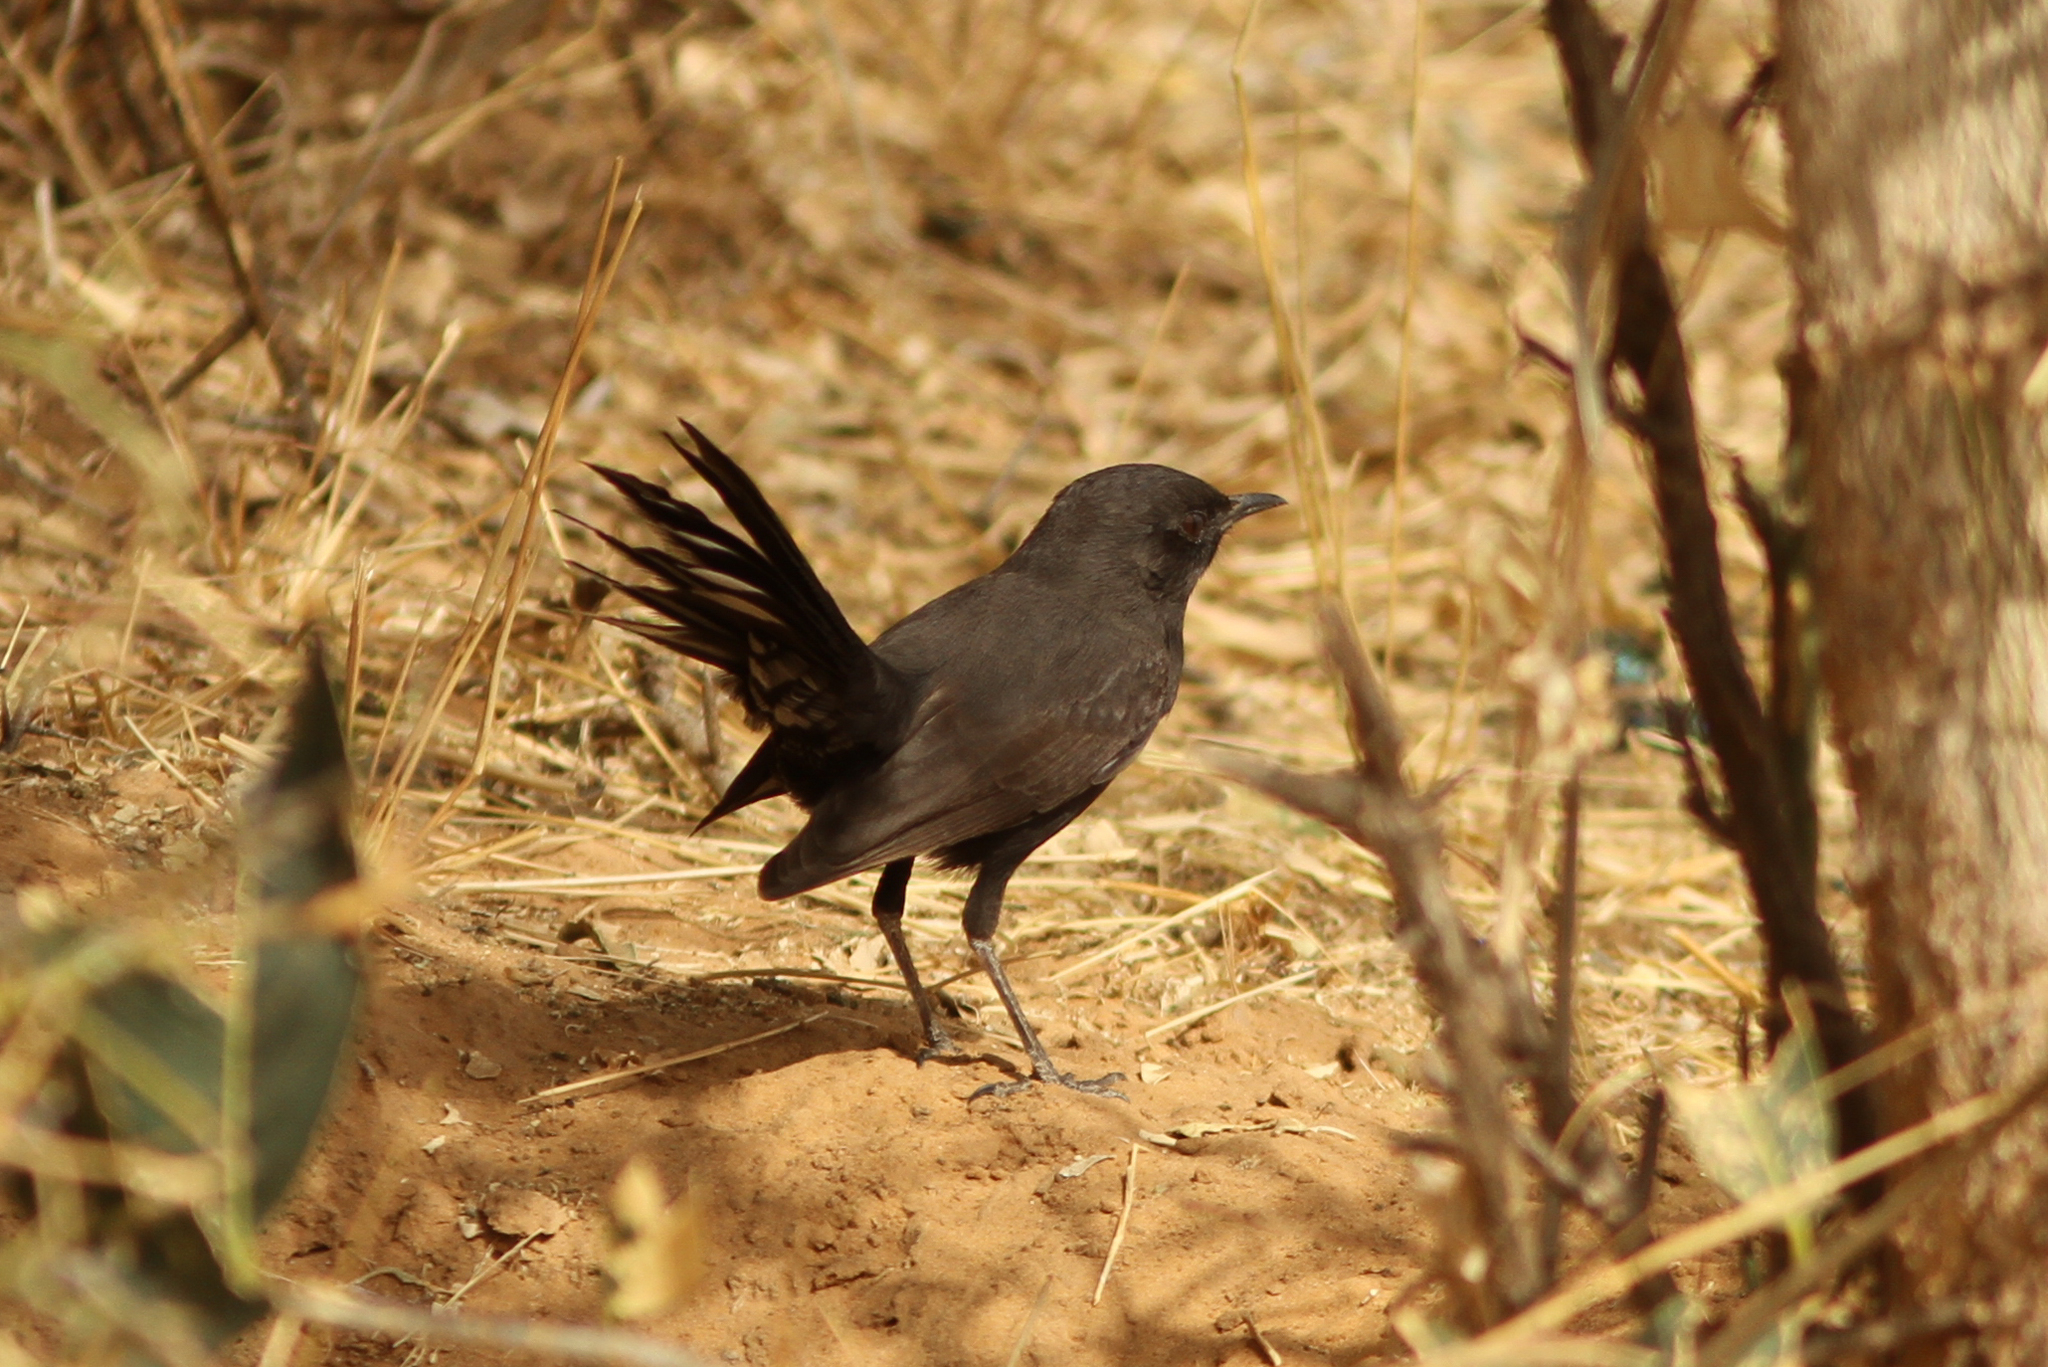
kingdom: Animalia
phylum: Chordata
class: Aves
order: Passeriformes
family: Muscicapidae
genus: Cercotrichas
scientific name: Cercotrichas podobe
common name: Black scrub robin
